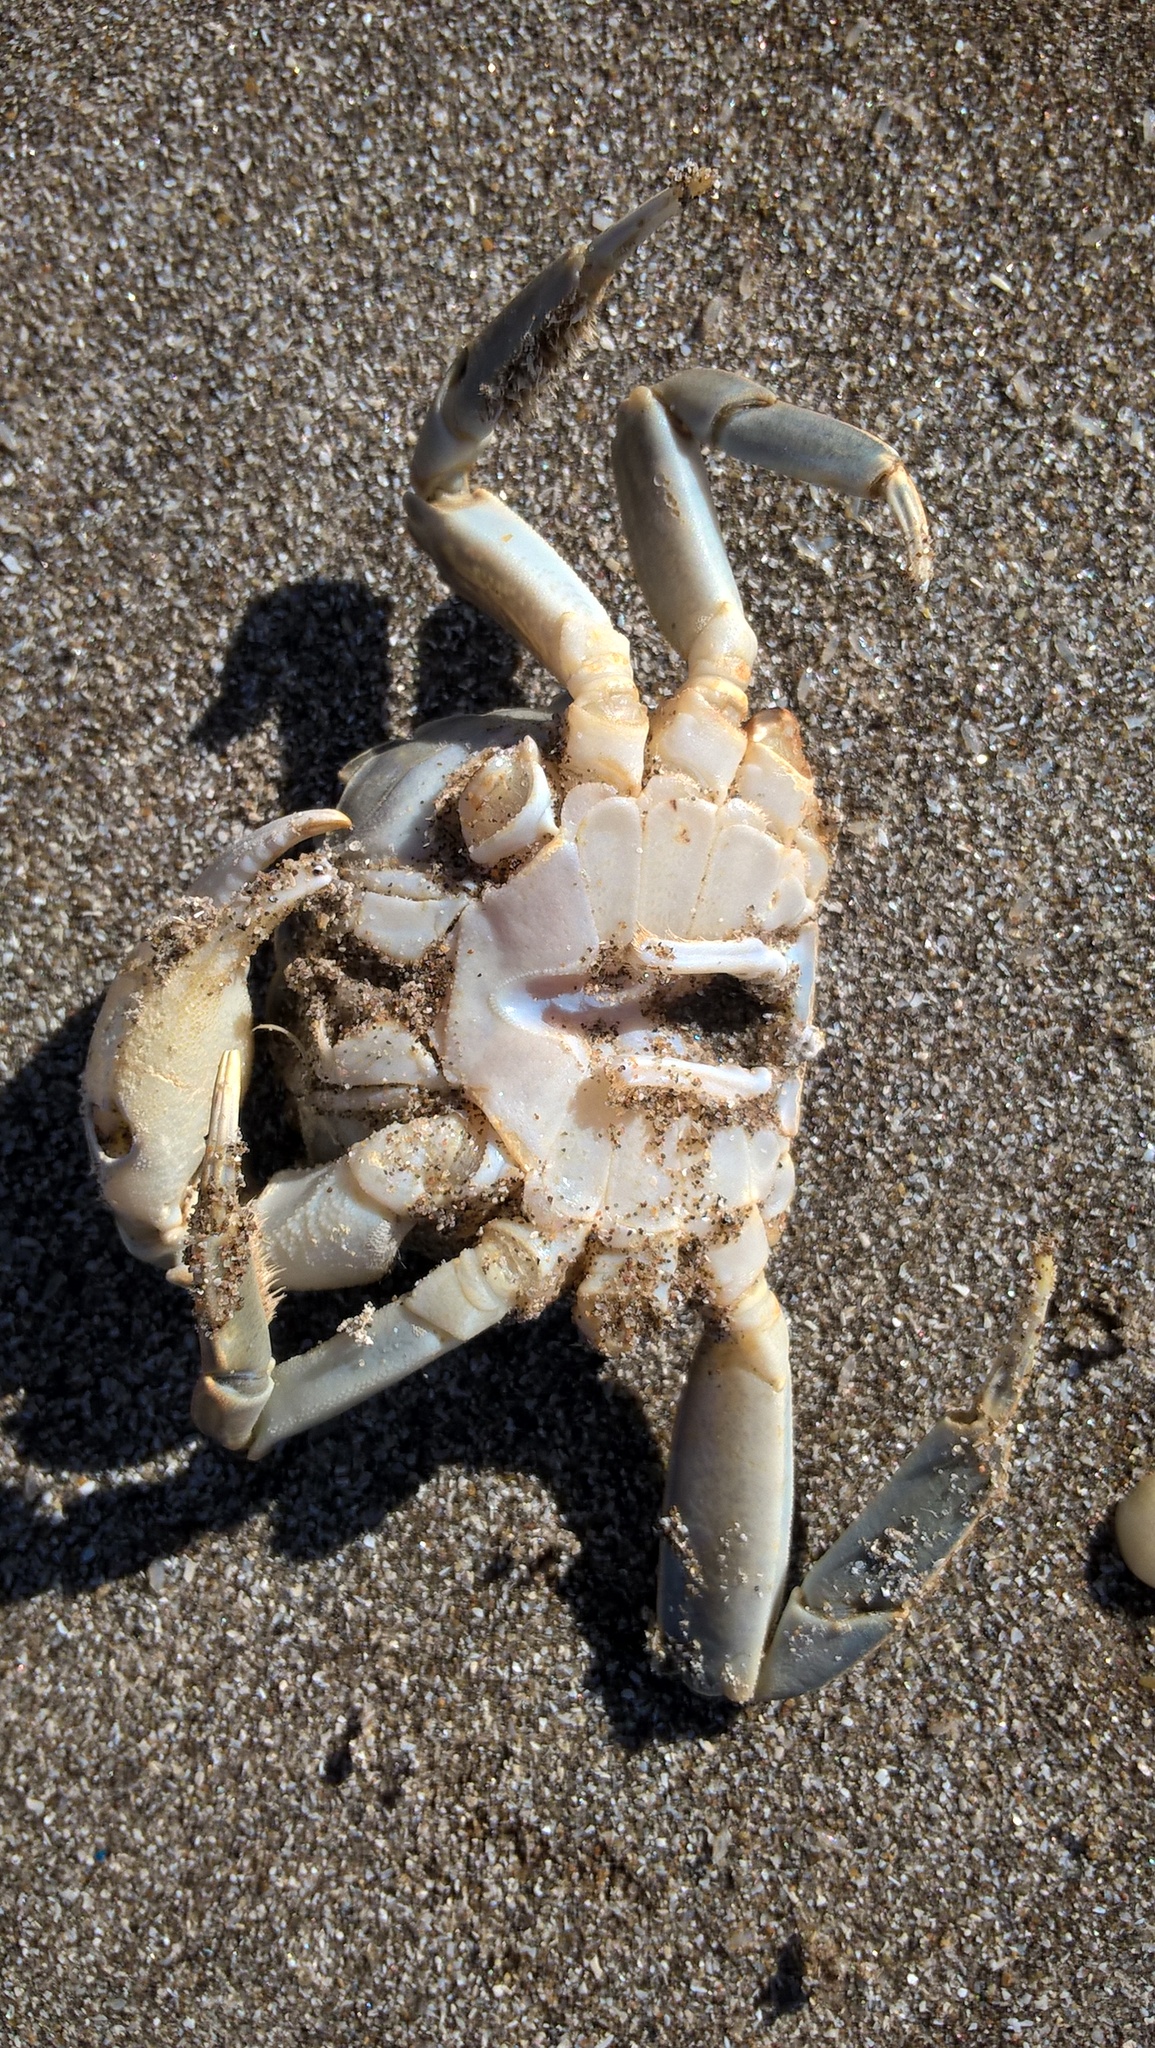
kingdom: Animalia
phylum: Arthropoda
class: Malacostraca
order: Decapoda
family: Varunidae
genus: Cyrtograpsus
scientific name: Cyrtograpsus angulatus
